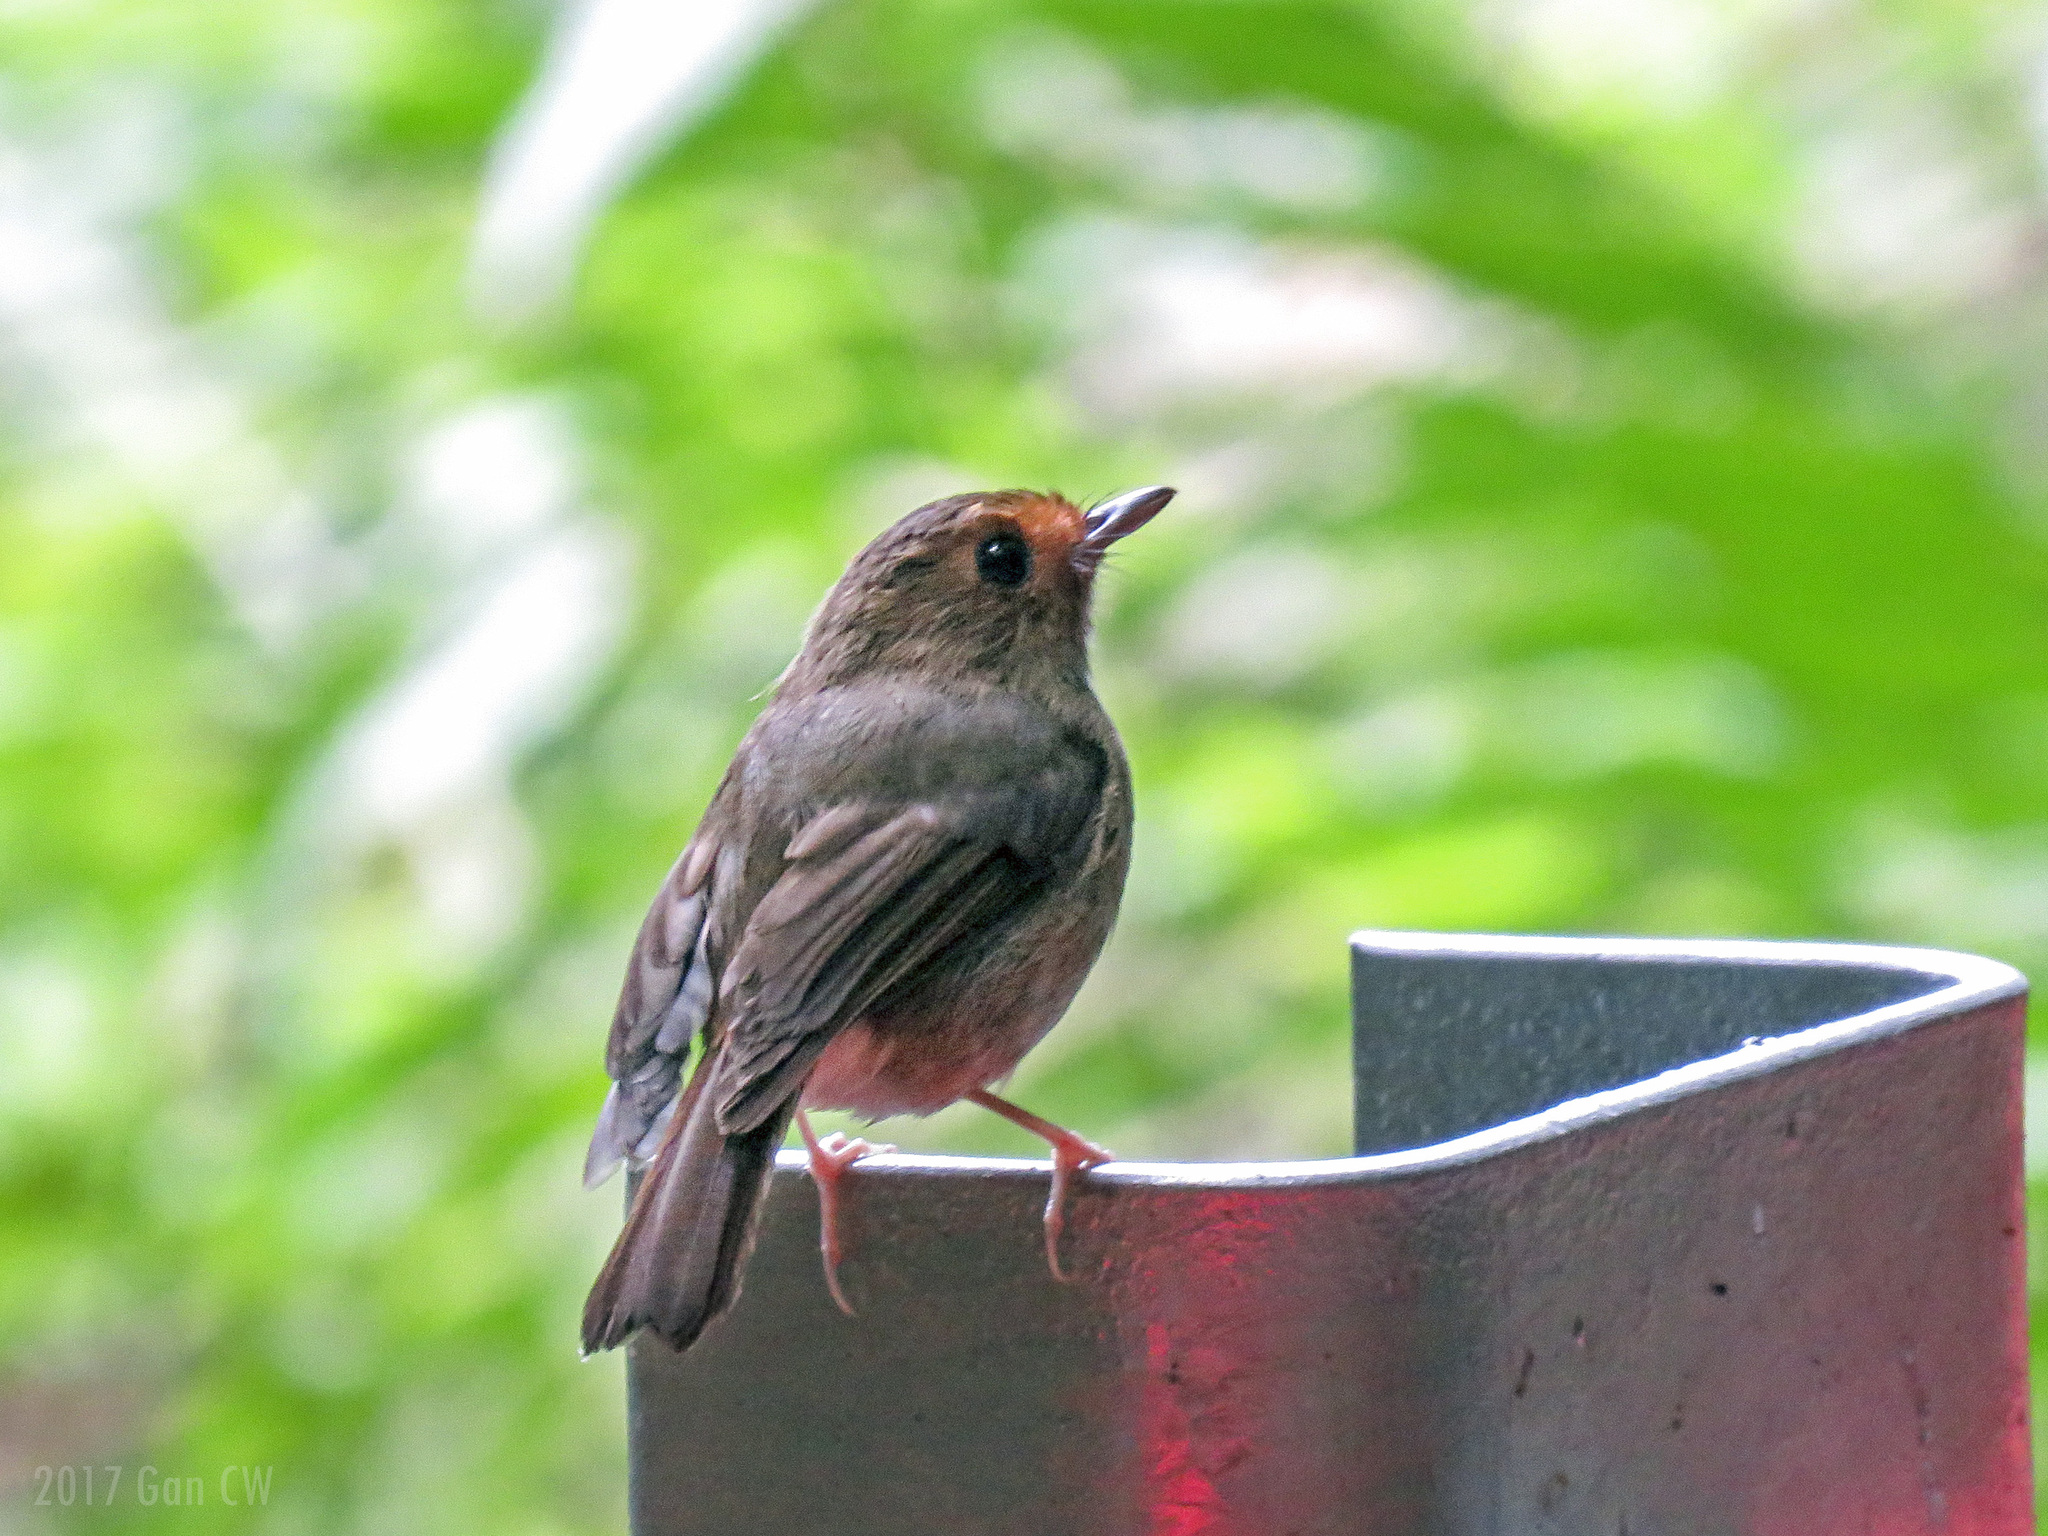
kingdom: Animalia
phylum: Chordata
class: Aves
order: Passeriformes
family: Muscicapidae
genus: Anthipes
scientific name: Anthipes solitaris
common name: Rufous-browed flycatcher
